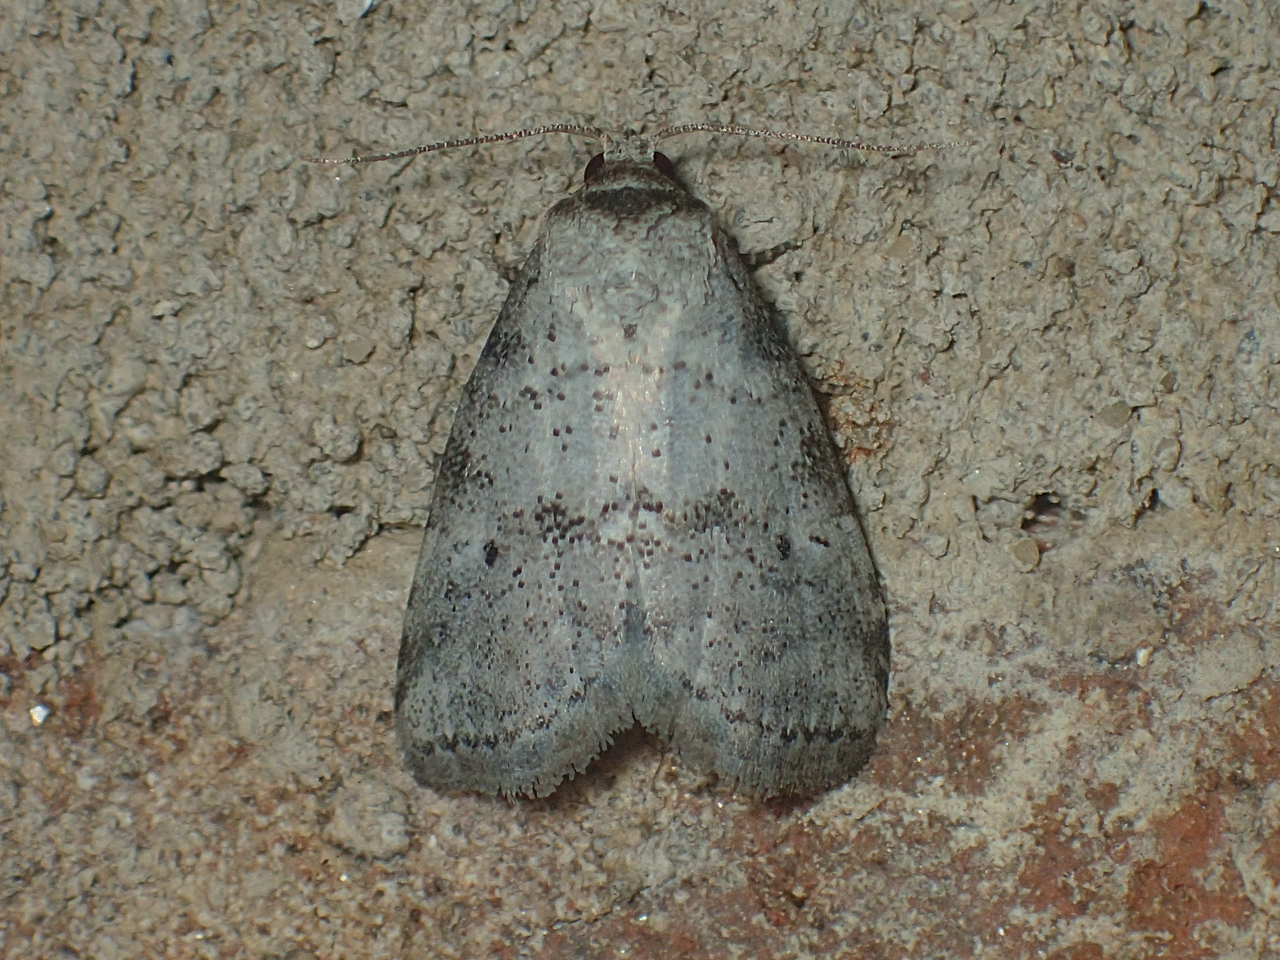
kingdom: Animalia
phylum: Arthropoda
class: Insecta
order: Lepidoptera
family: Erebidae
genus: Hyperstrotia
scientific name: Hyperstrotia pervertens
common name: Dotted graylet
